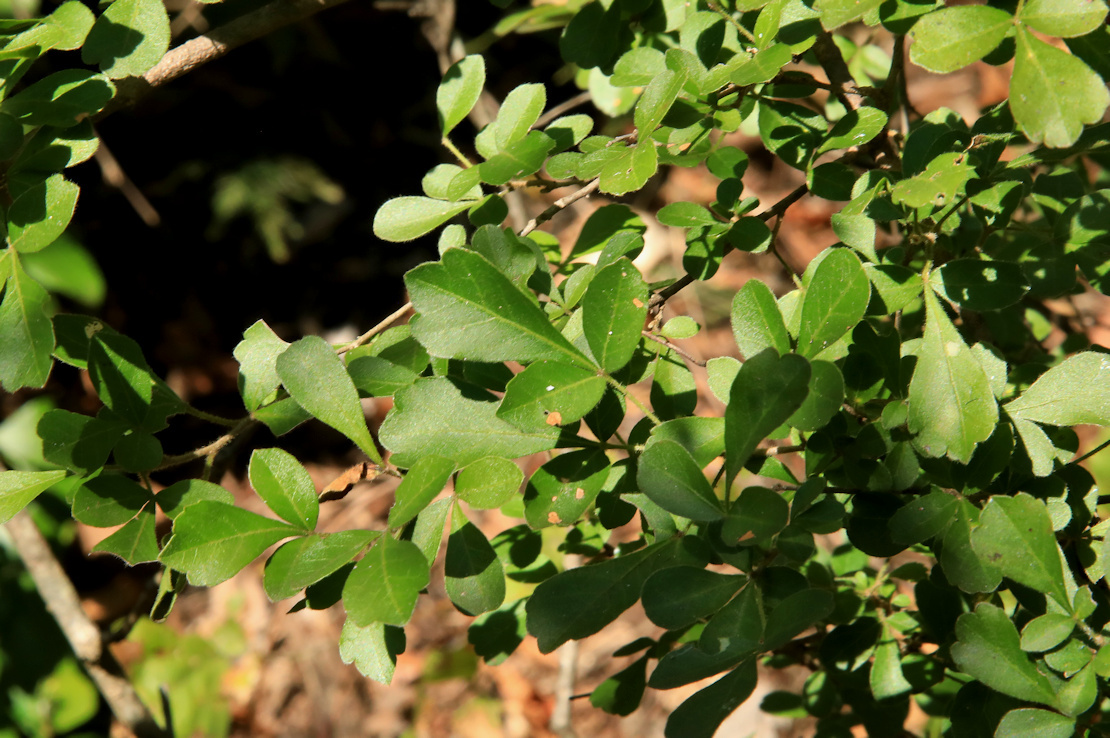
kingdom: Plantae
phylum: Tracheophyta
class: Magnoliopsida
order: Sapindales
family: Anacardiaceae
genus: Searsia
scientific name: Searsia rehmanniana
